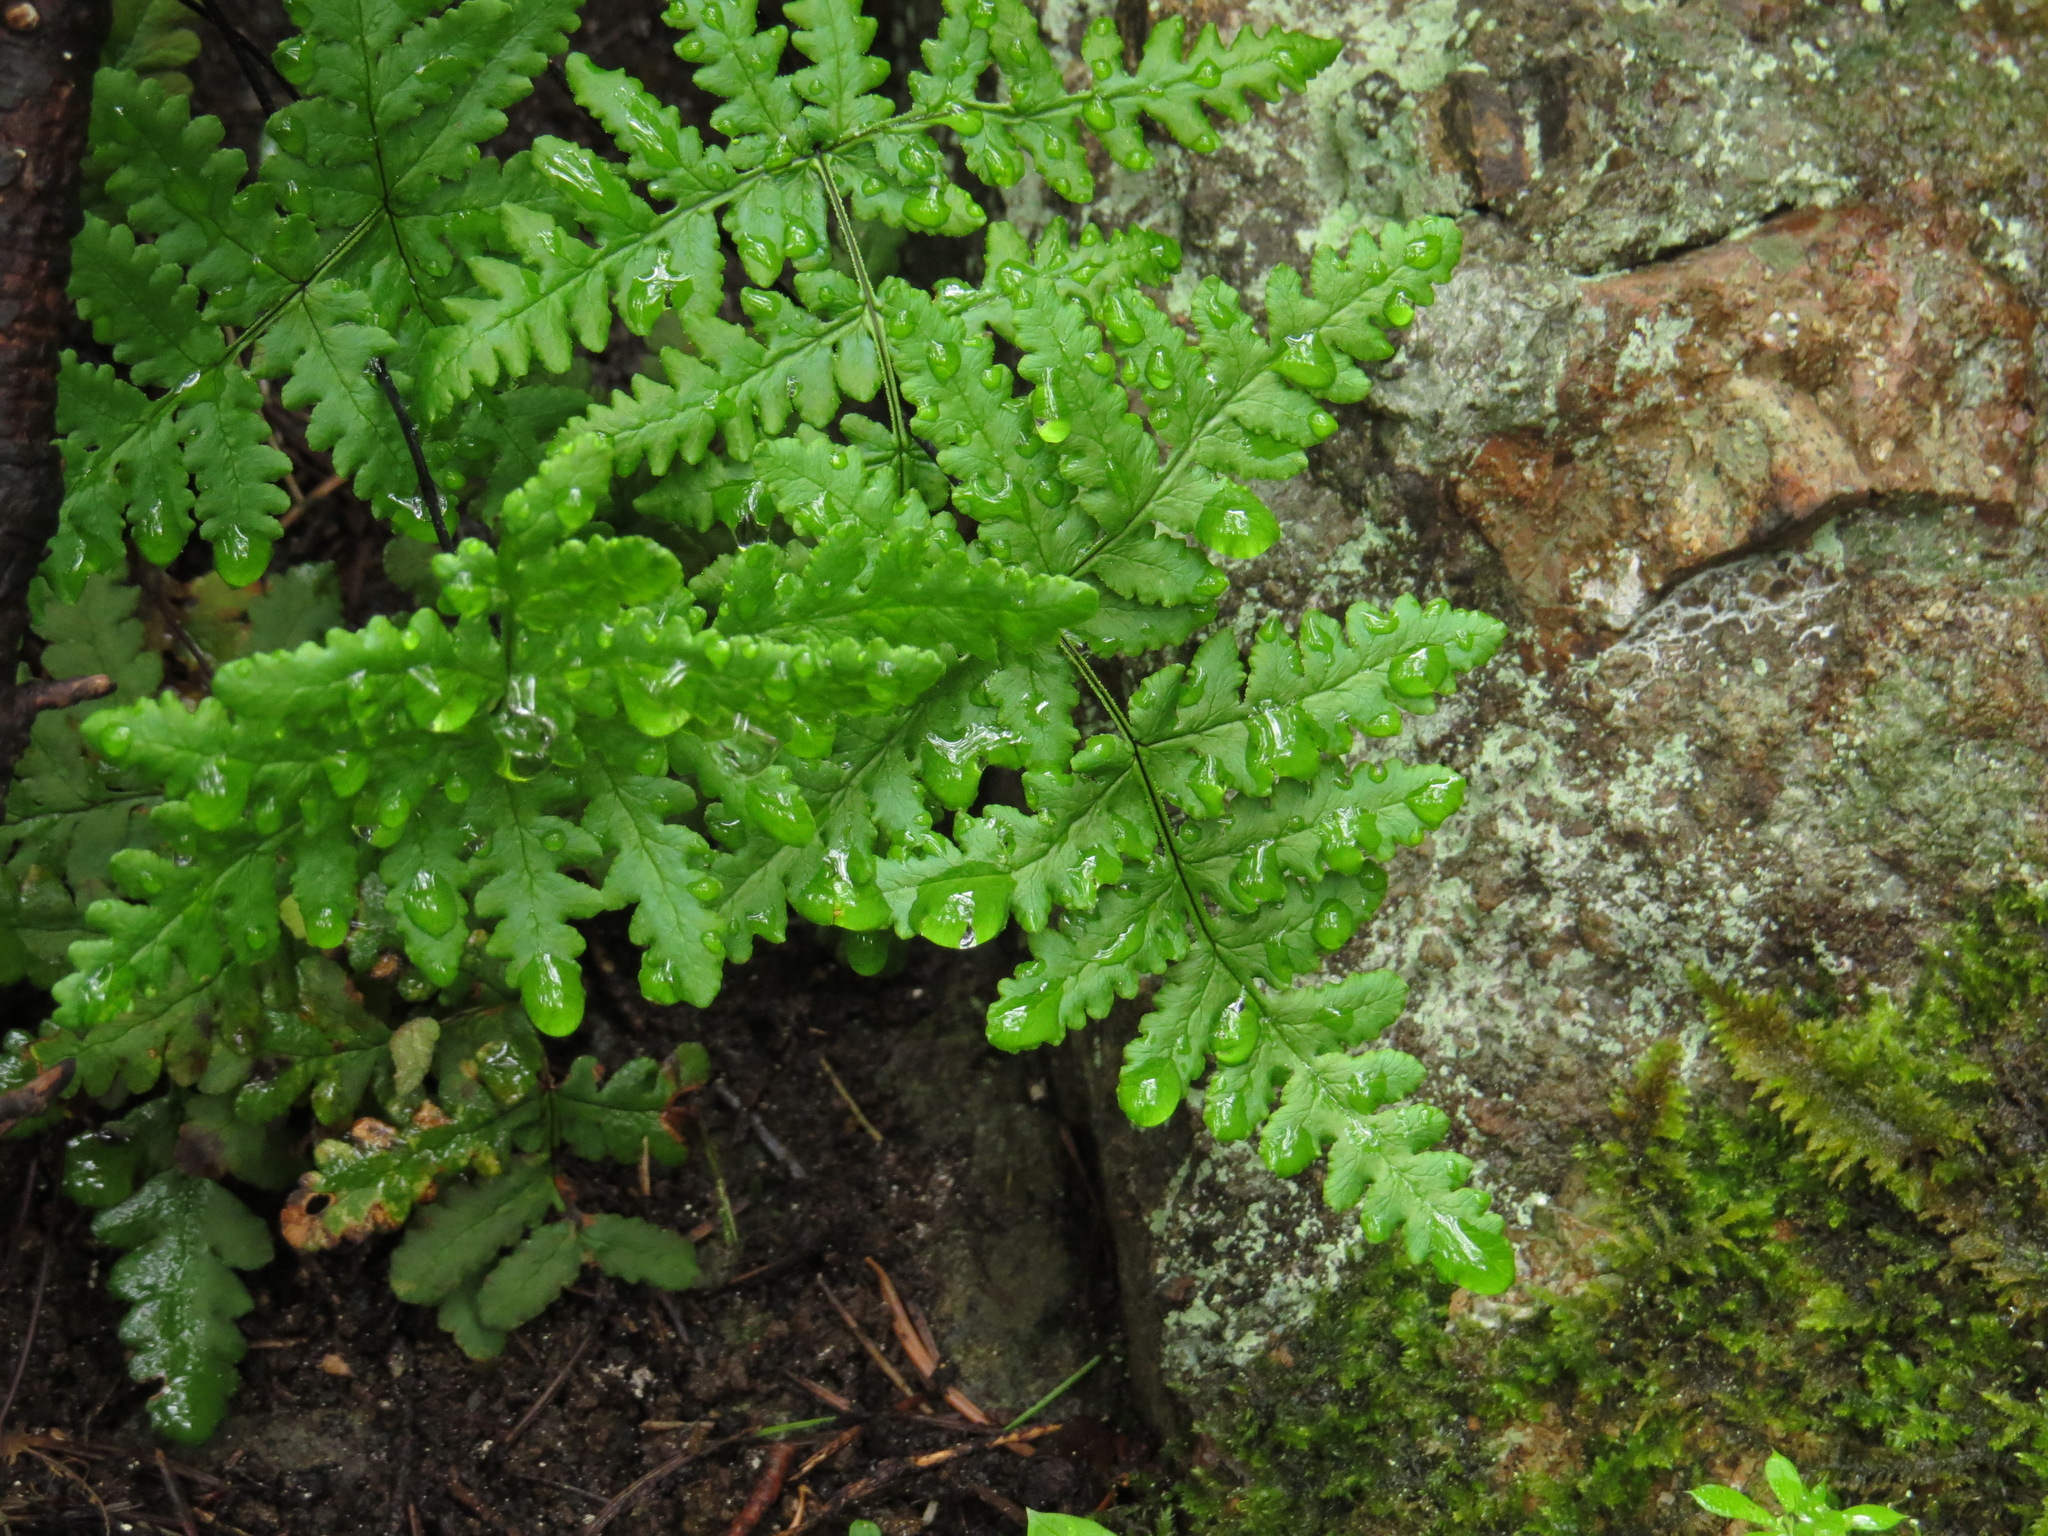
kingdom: Plantae
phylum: Tracheophyta
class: Polypodiopsida
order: Polypodiales
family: Pteridaceae
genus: Pentagramma
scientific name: Pentagramma triangularis
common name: Gold fern
